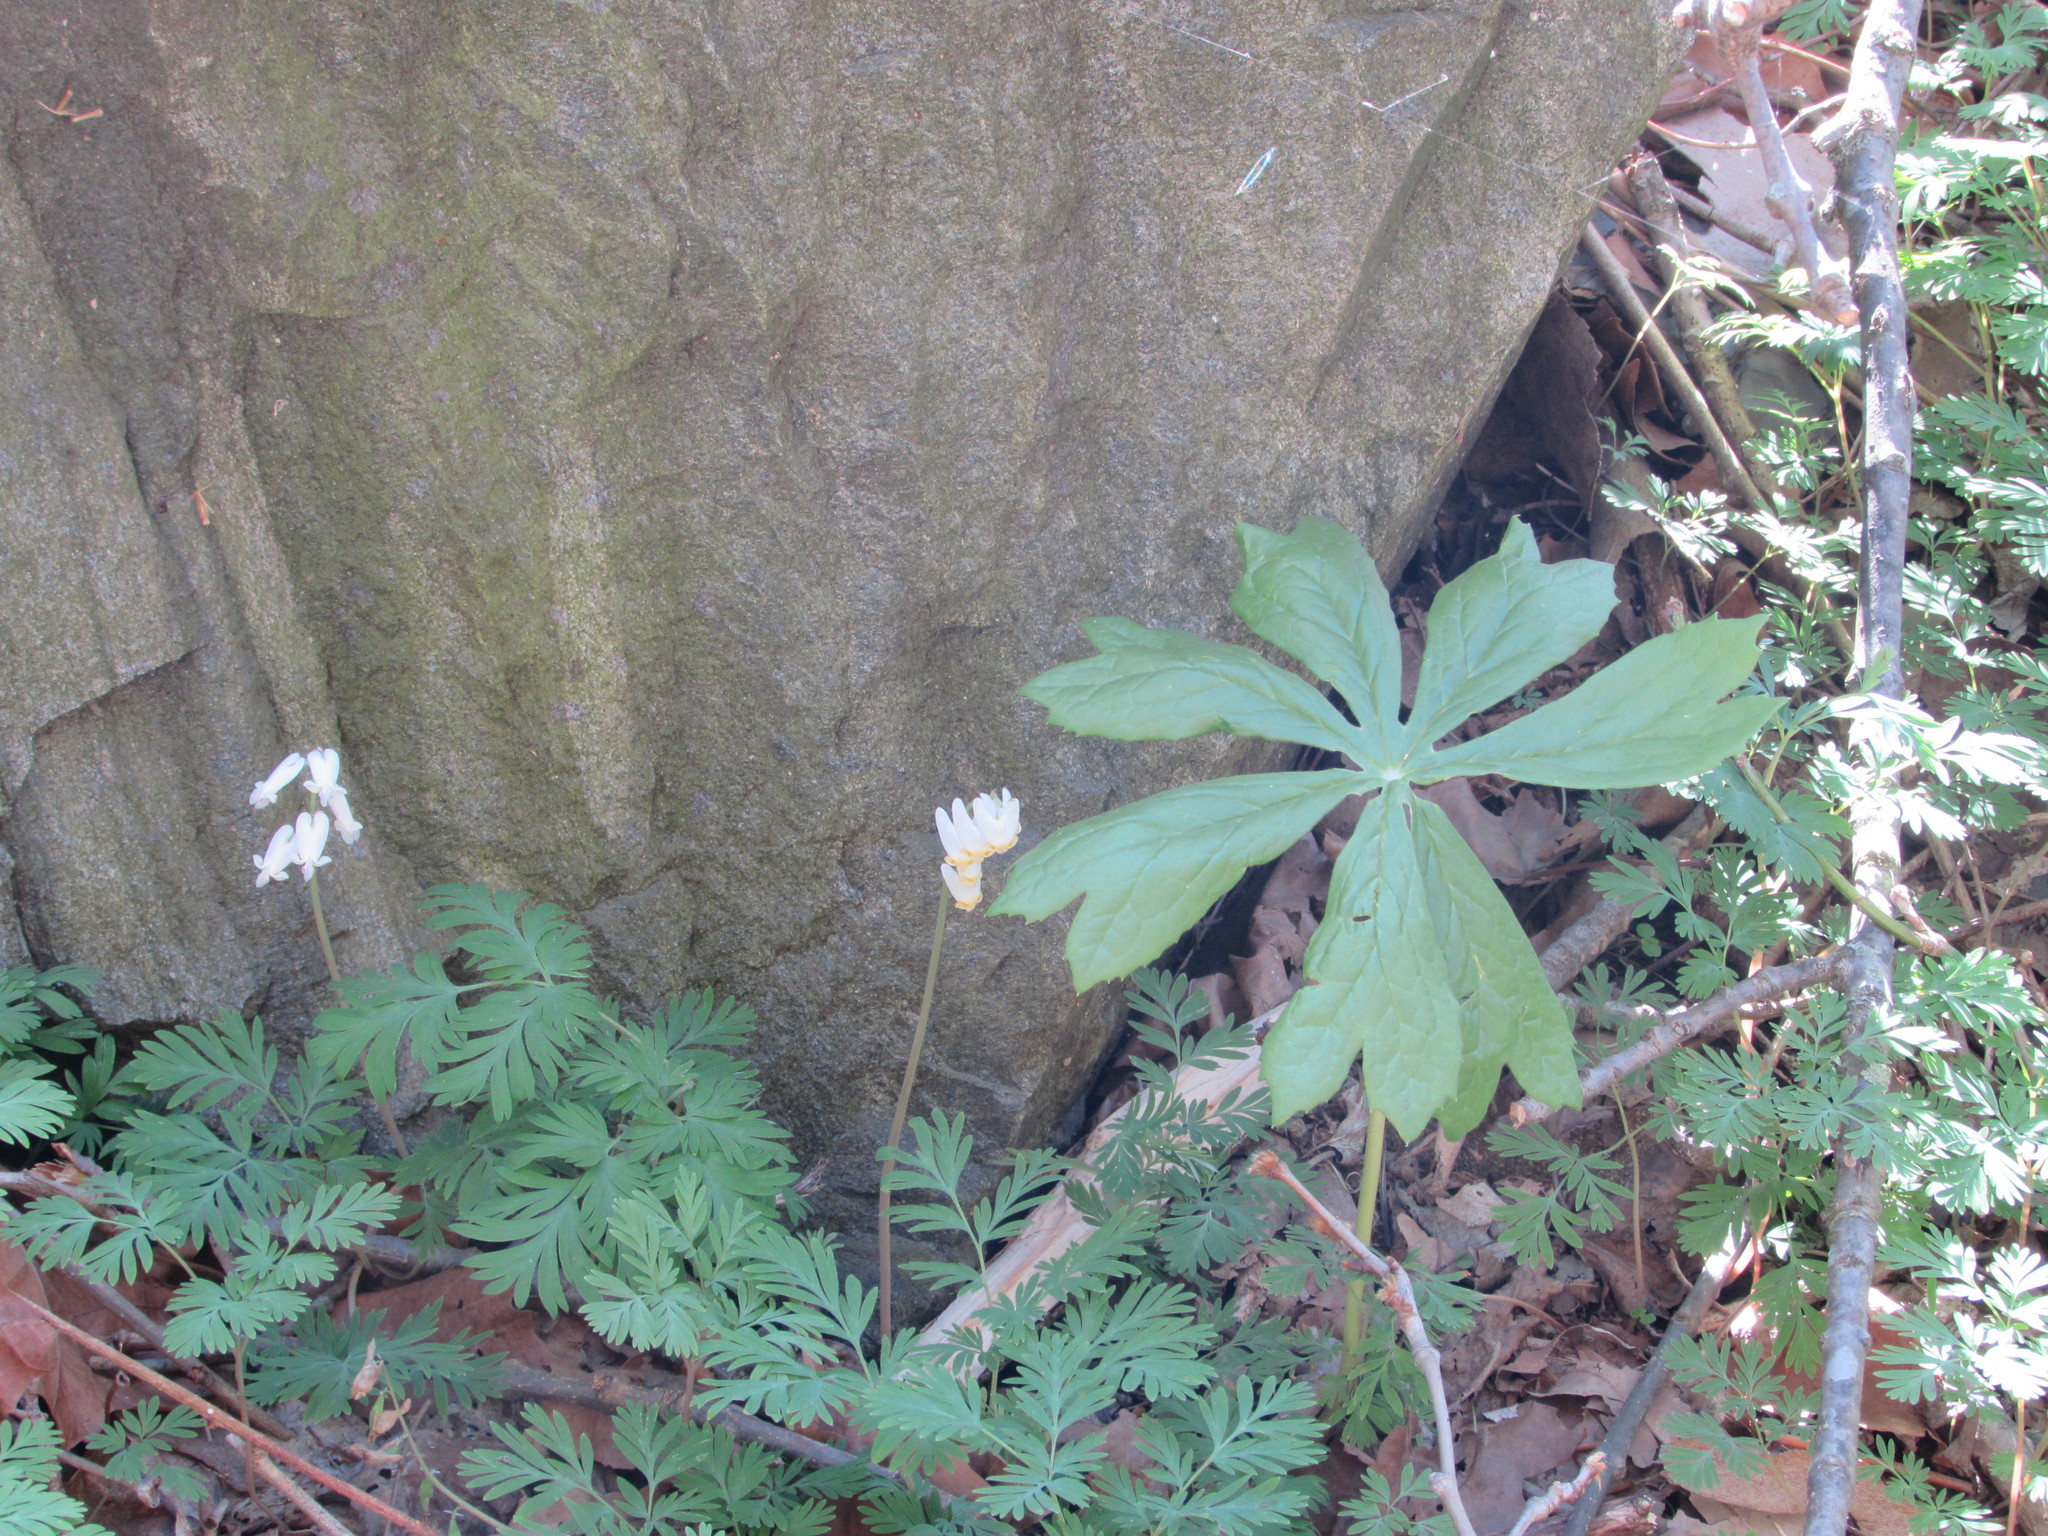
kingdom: Plantae
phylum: Tracheophyta
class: Magnoliopsida
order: Ranunculales
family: Berberidaceae
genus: Podophyllum
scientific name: Podophyllum peltatum
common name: Wild mandrake
